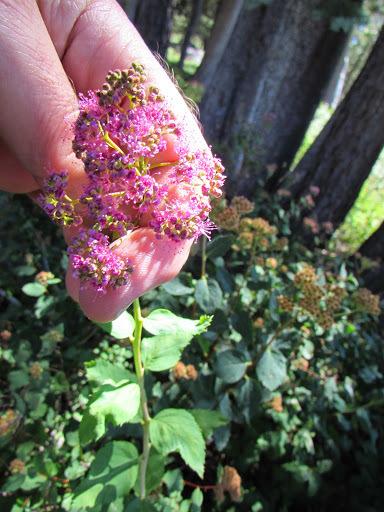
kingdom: Plantae
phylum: Tracheophyta
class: Magnoliopsida
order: Rosales
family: Rosaceae
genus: Spiraea
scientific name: Spiraea splendens
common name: Subalpine meadowsweet
